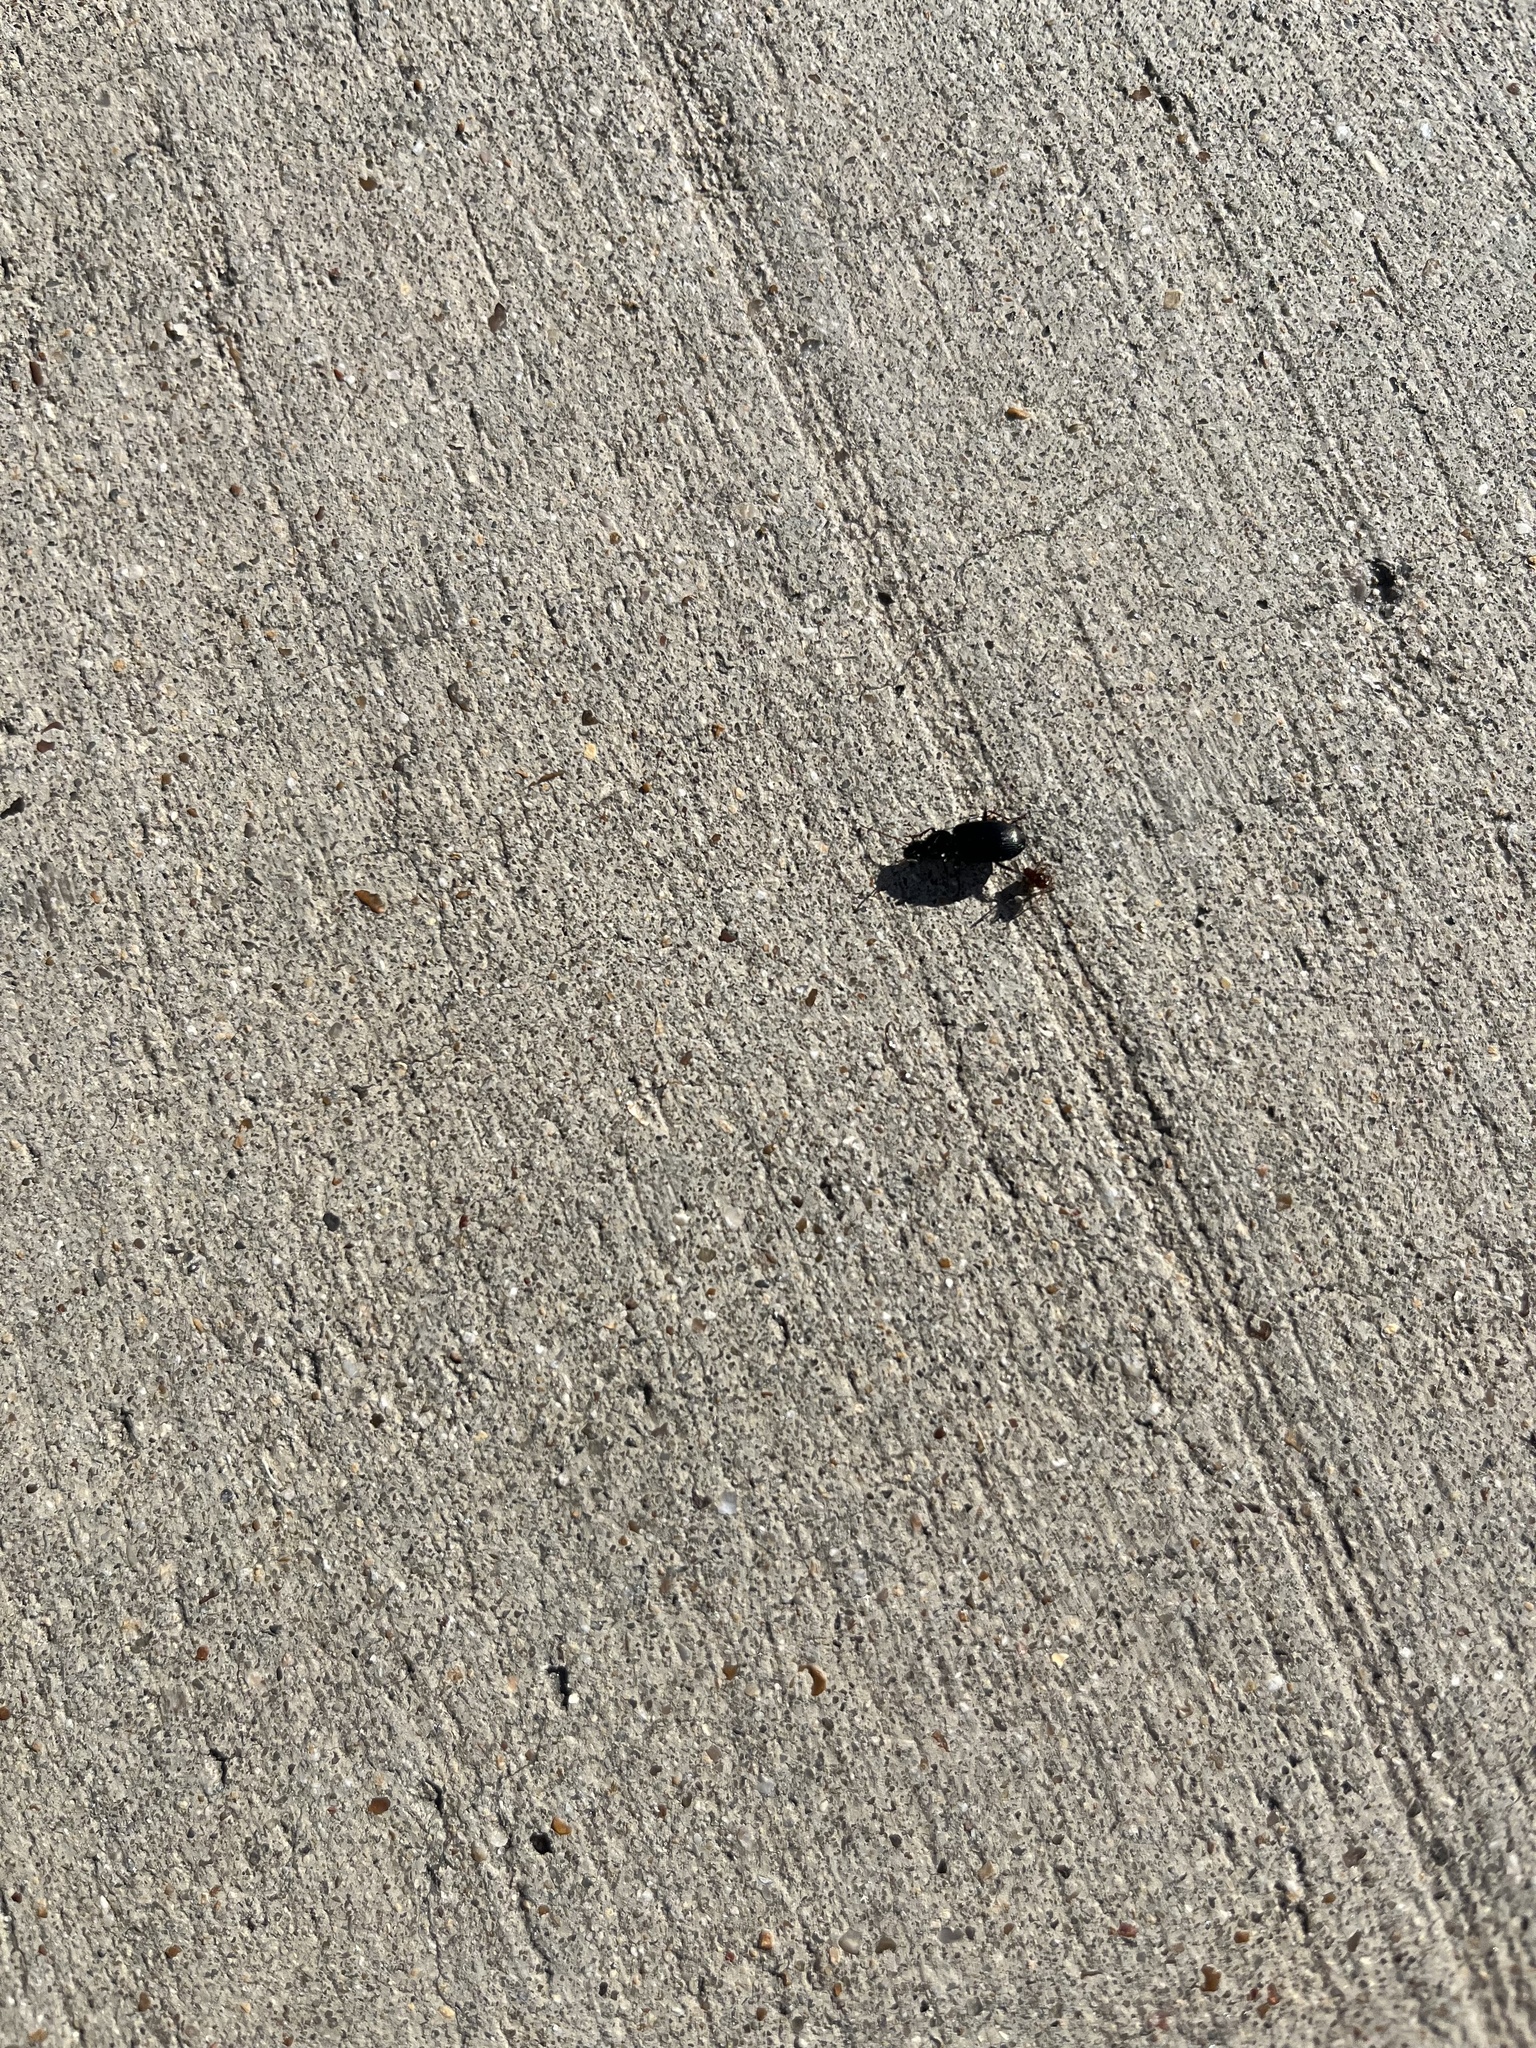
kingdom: Animalia
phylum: Arthropoda
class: Insecta
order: Coleoptera
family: Carabidae
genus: Agonum
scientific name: Agonum punctiforme
